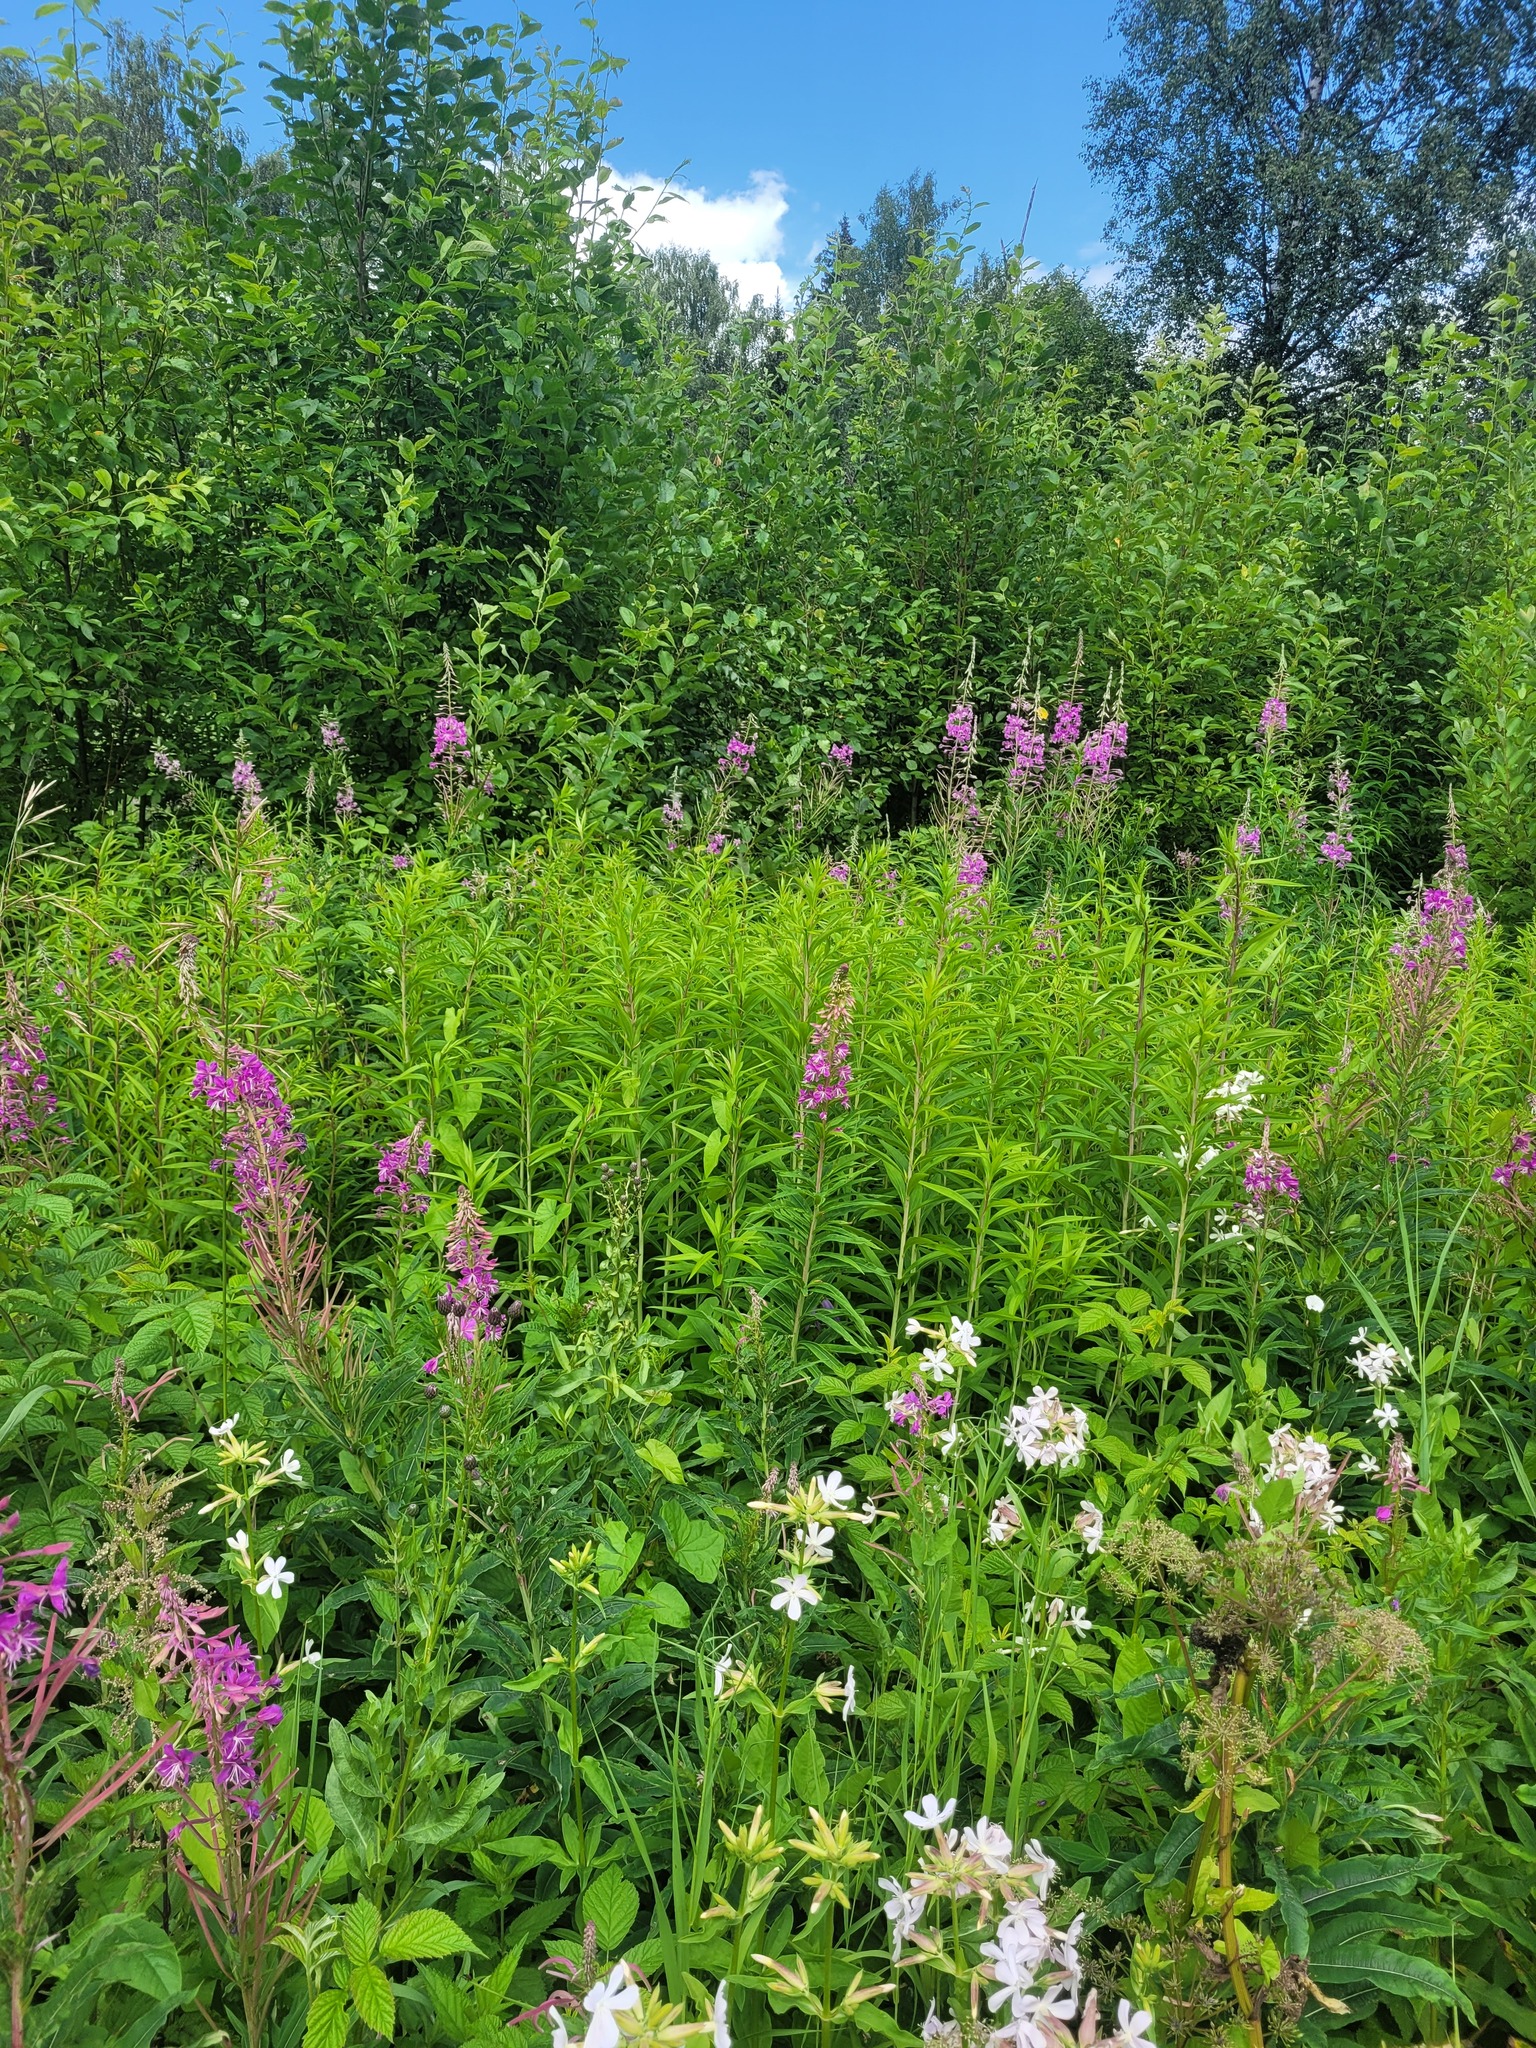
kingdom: Plantae
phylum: Tracheophyta
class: Magnoliopsida
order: Myrtales
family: Onagraceae
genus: Chamaenerion
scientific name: Chamaenerion angustifolium
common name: Fireweed
